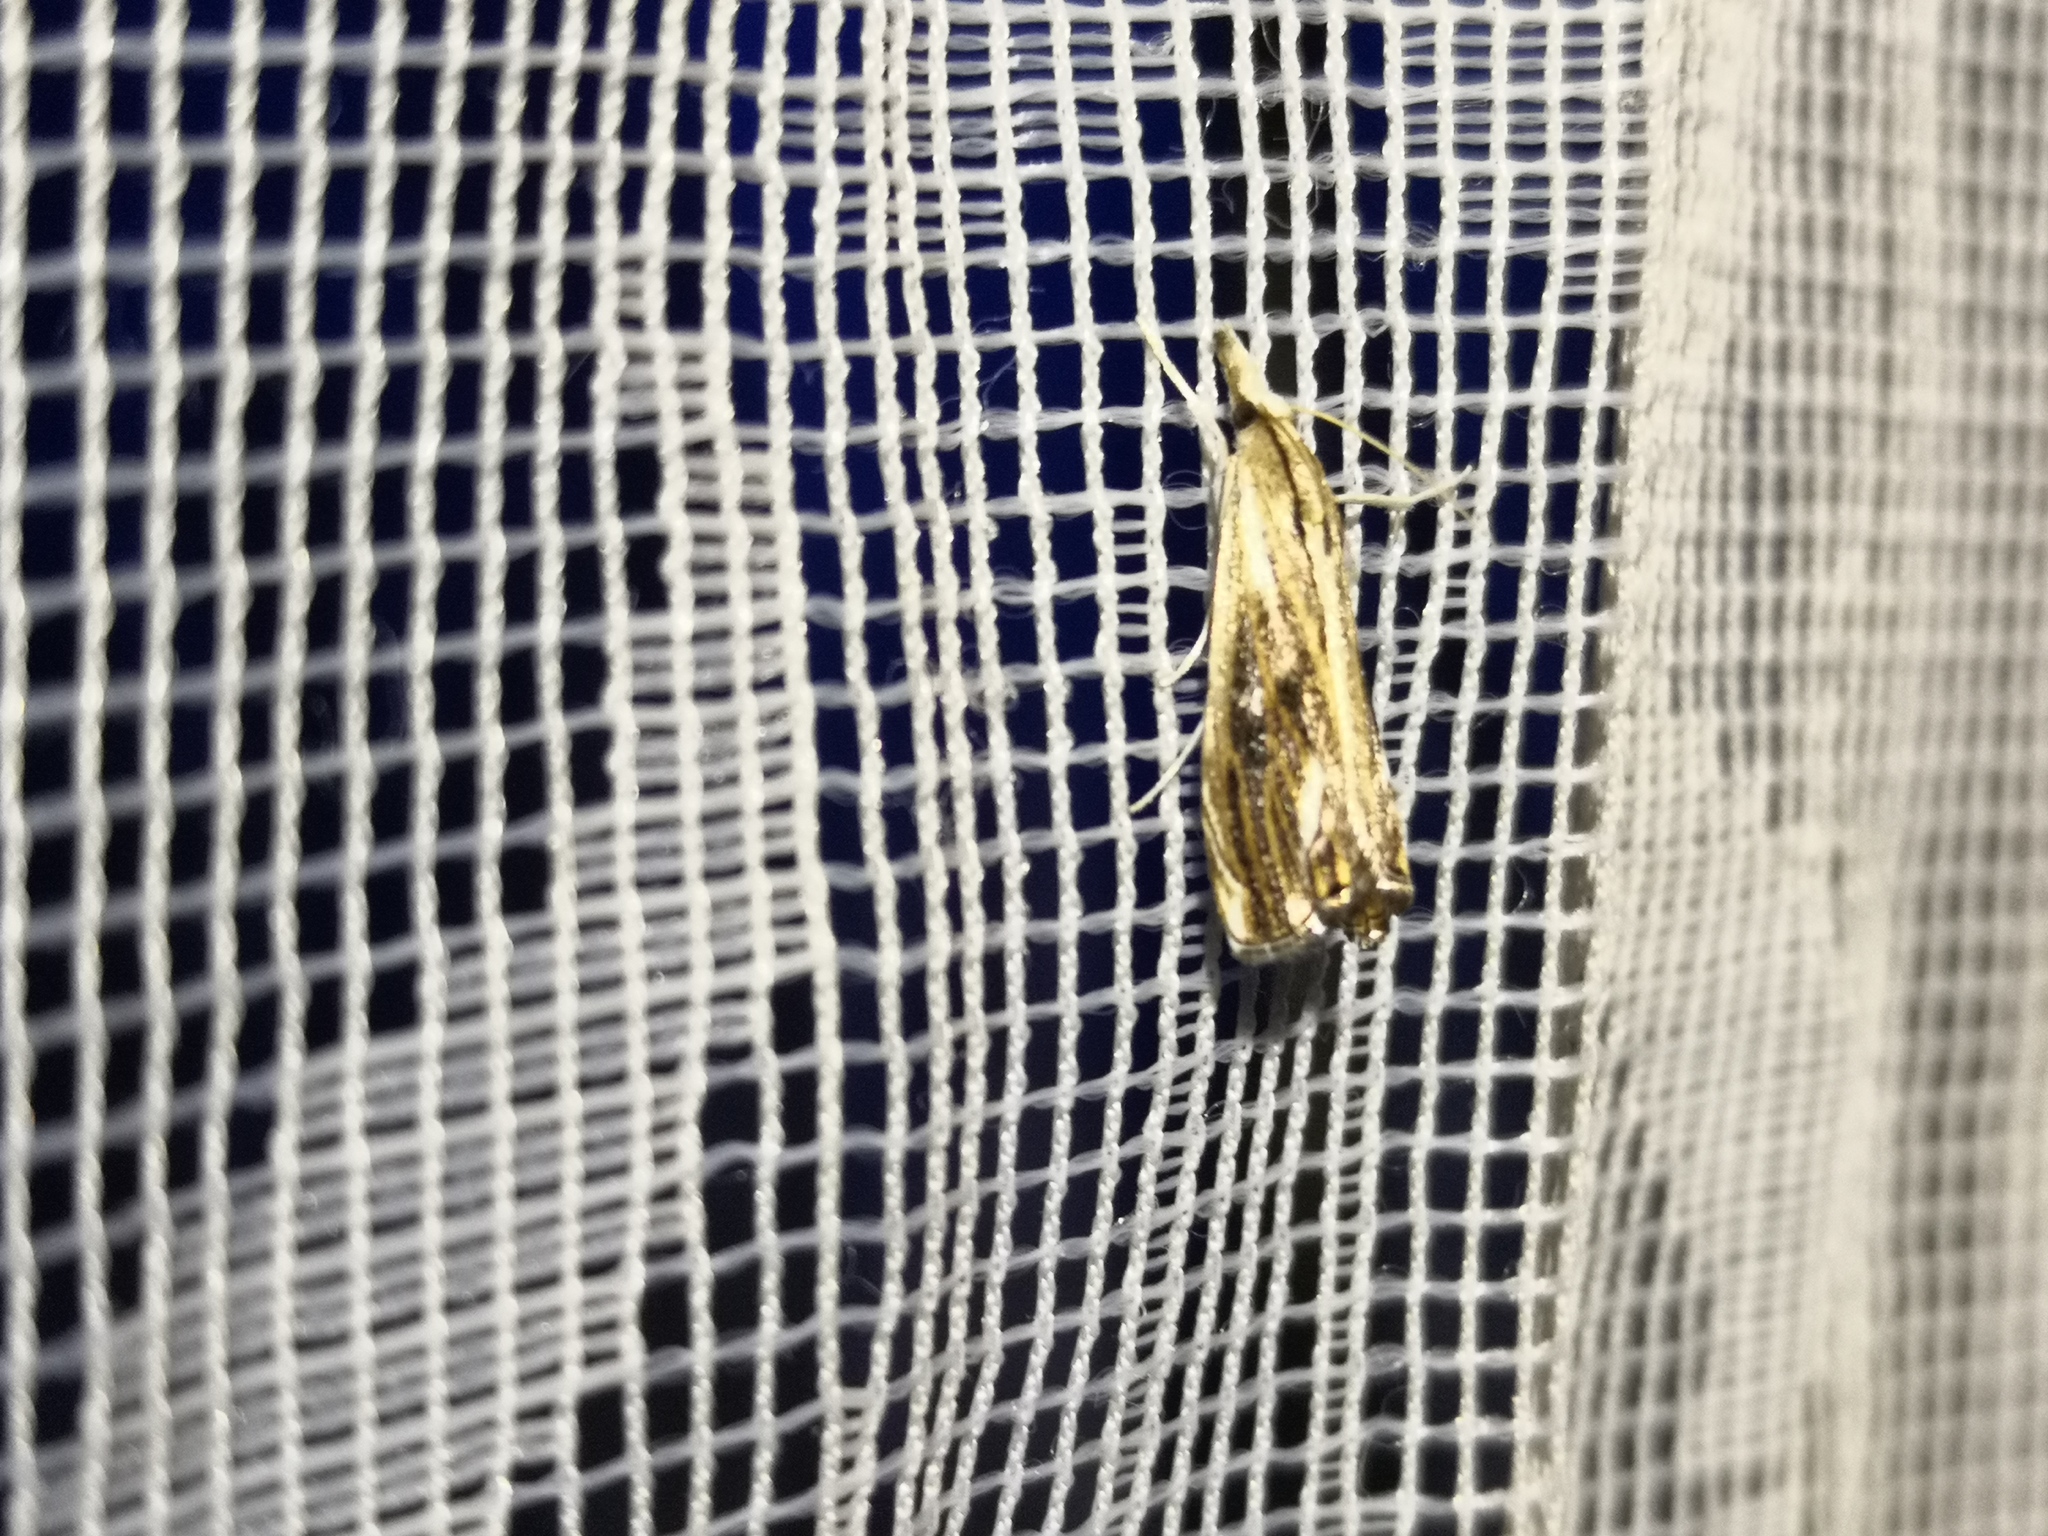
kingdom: Animalia
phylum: Arthropoda
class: Insecta
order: Lepidoptera
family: Crambidae
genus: Catoptria
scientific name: Catoptria verellus
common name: Marbled grass-veneer
